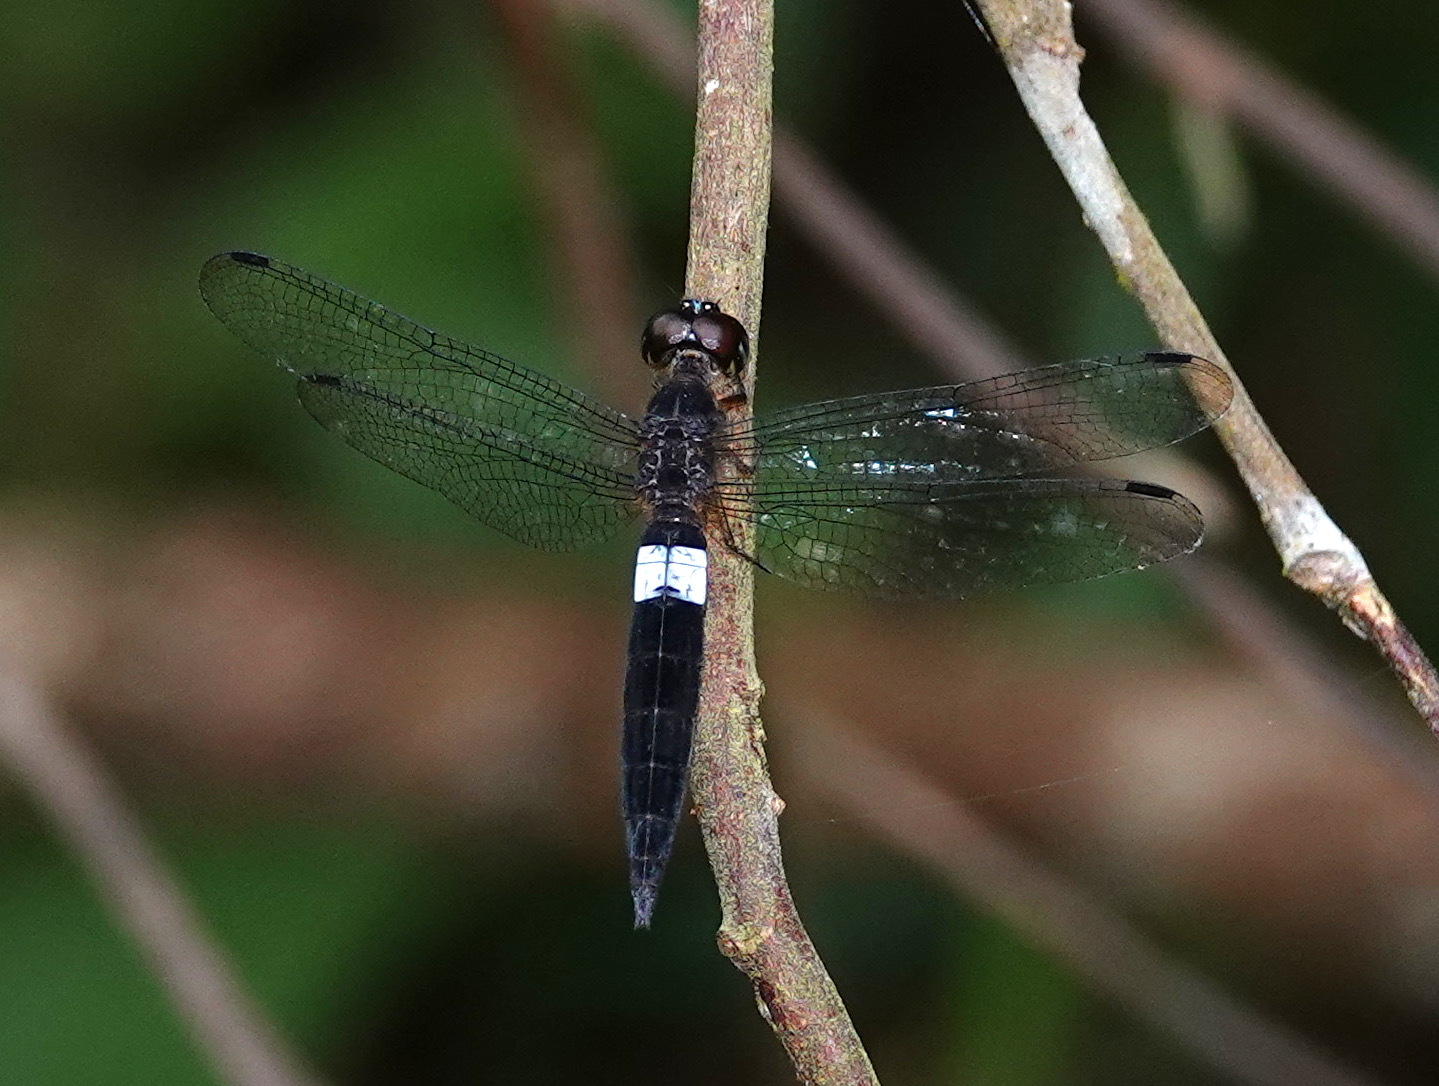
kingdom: Animalia
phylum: Arthropoda
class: Insecta
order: Odonata
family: Libellulidae
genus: Orchithemis
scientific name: Orchithemis pulcherrima
